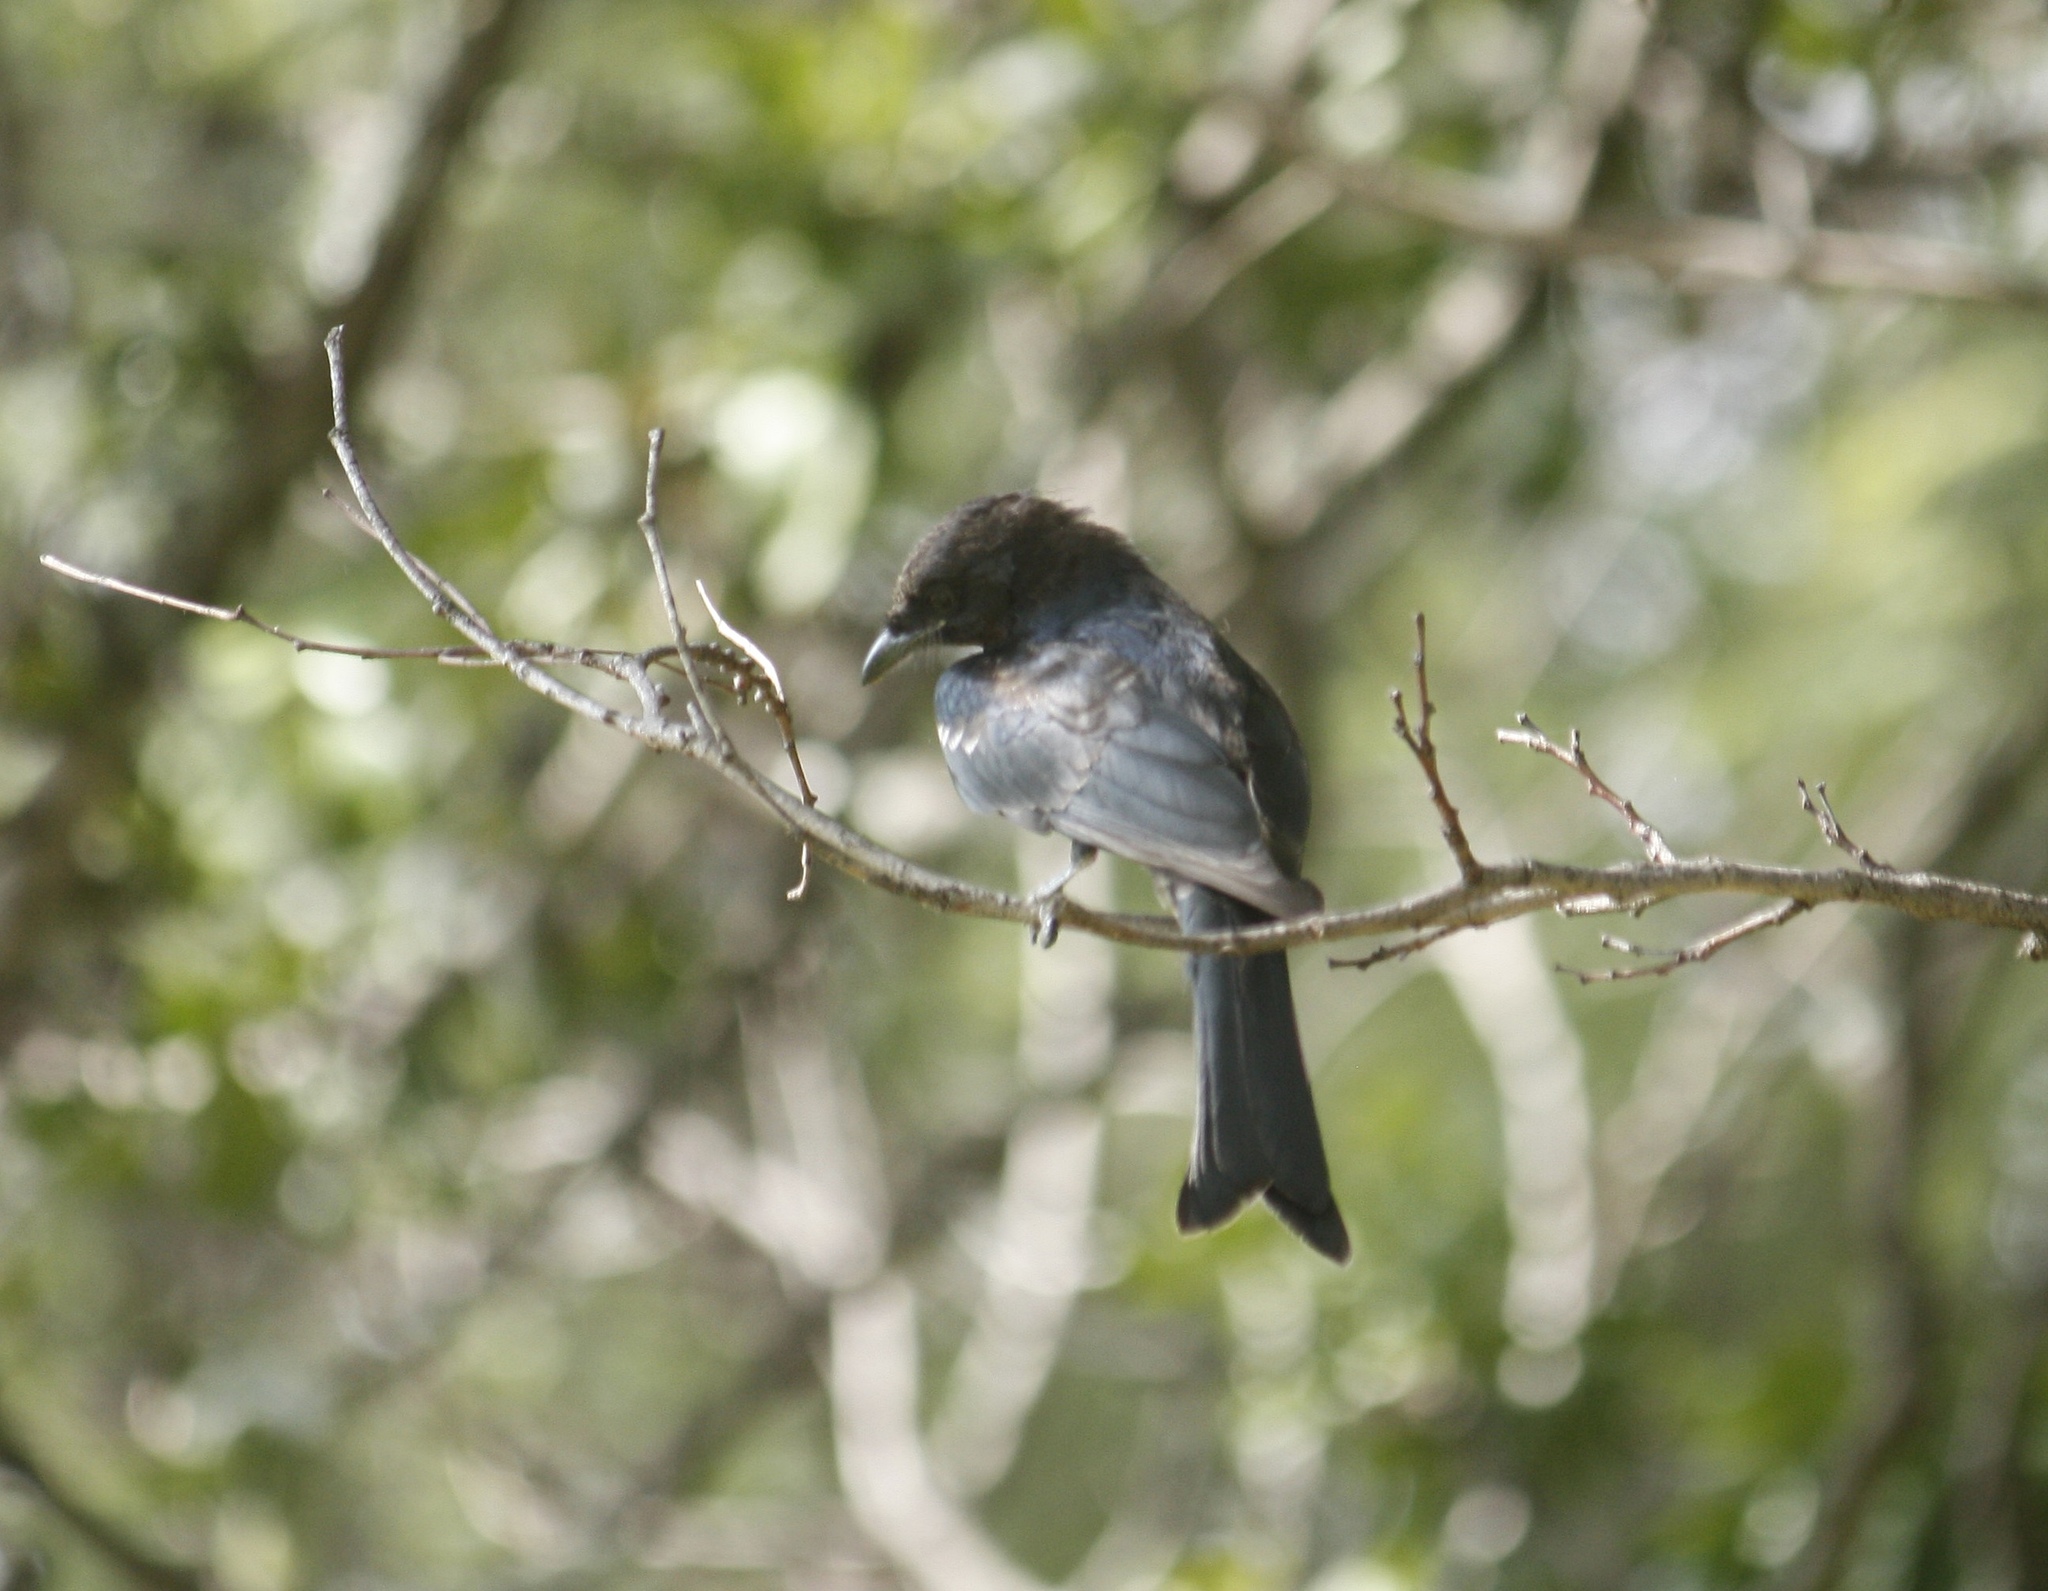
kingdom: Animalia
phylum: Chordata
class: Aves
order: Passeriformes
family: Dicruridae
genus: Dicrurus
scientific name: Dicrurus adsimilis
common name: Fork-tailed drongo
